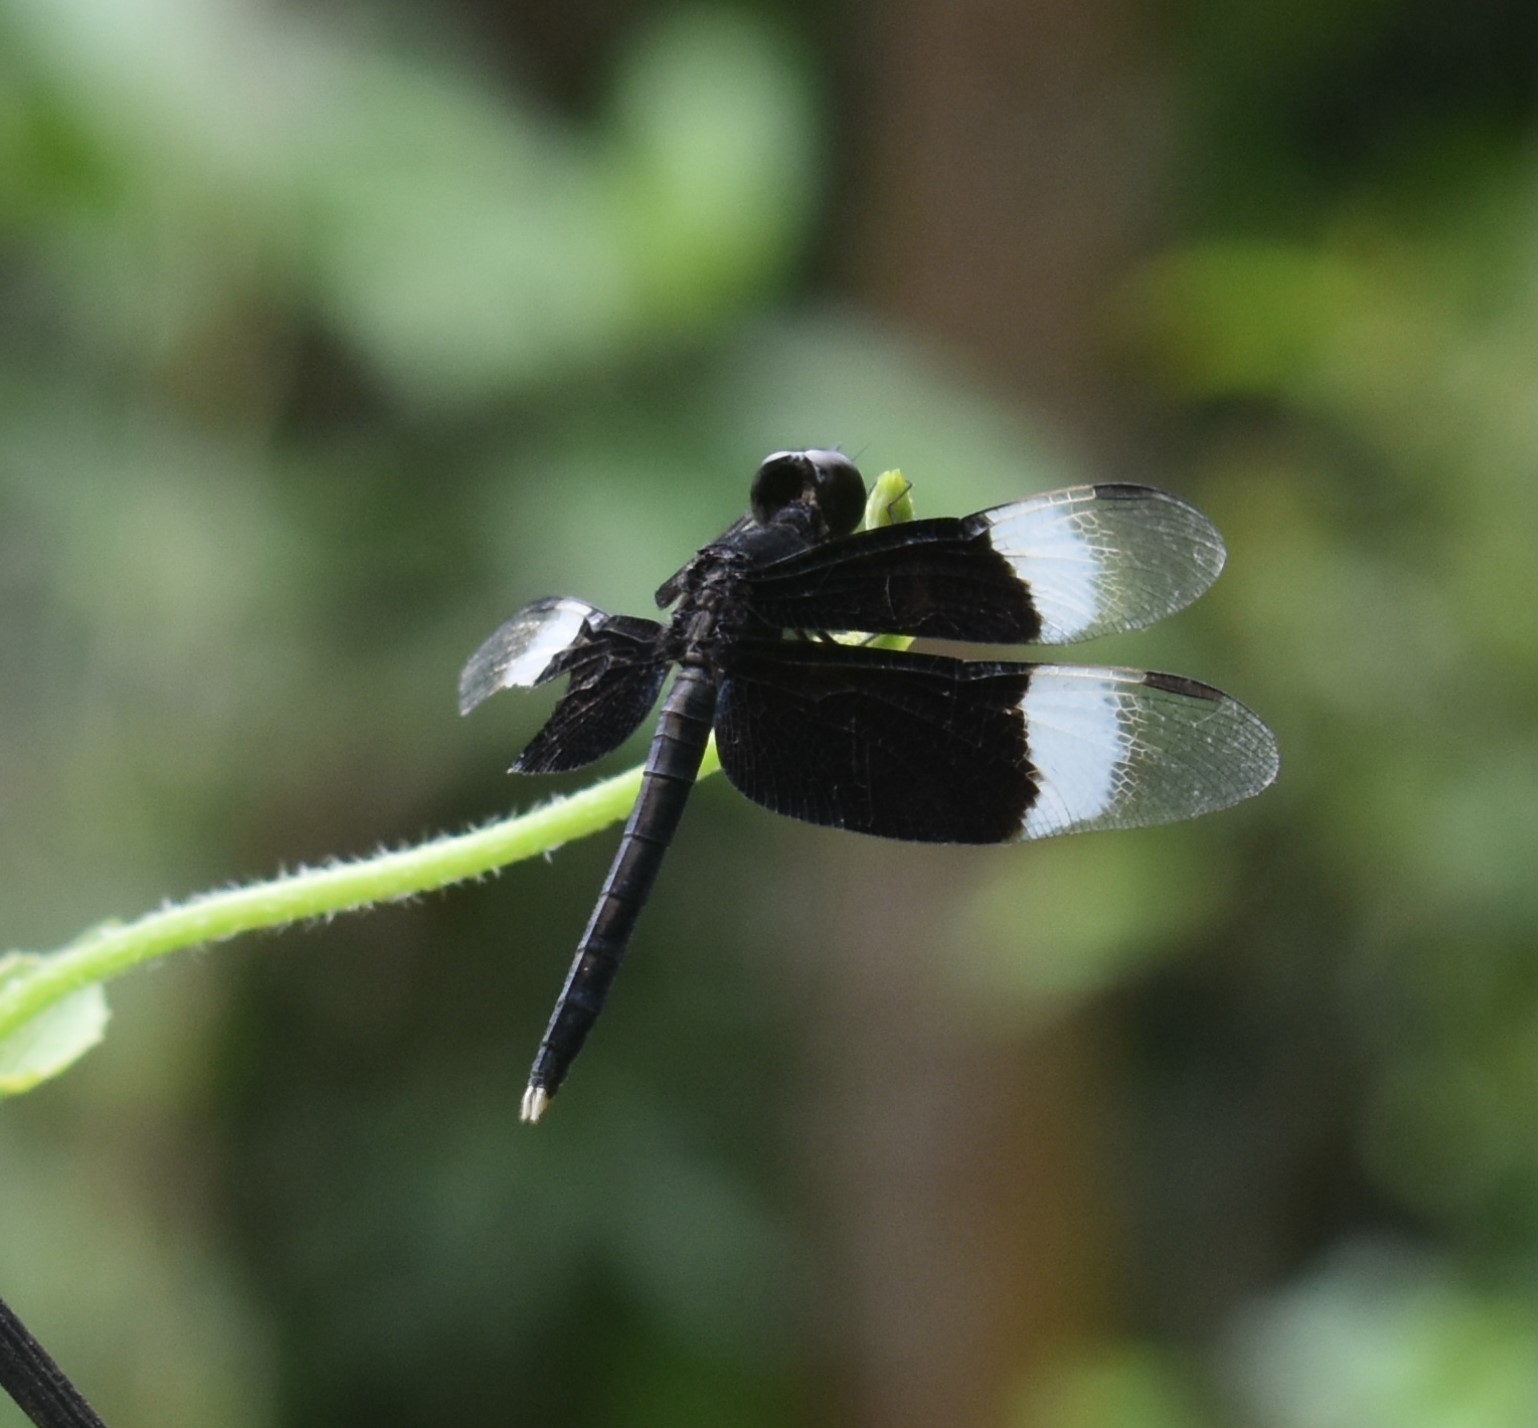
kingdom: Animalia
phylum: Arthropoda
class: Insecta
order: Odonata
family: Libellulidae
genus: Neurothemis
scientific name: Neurothemis tullia
